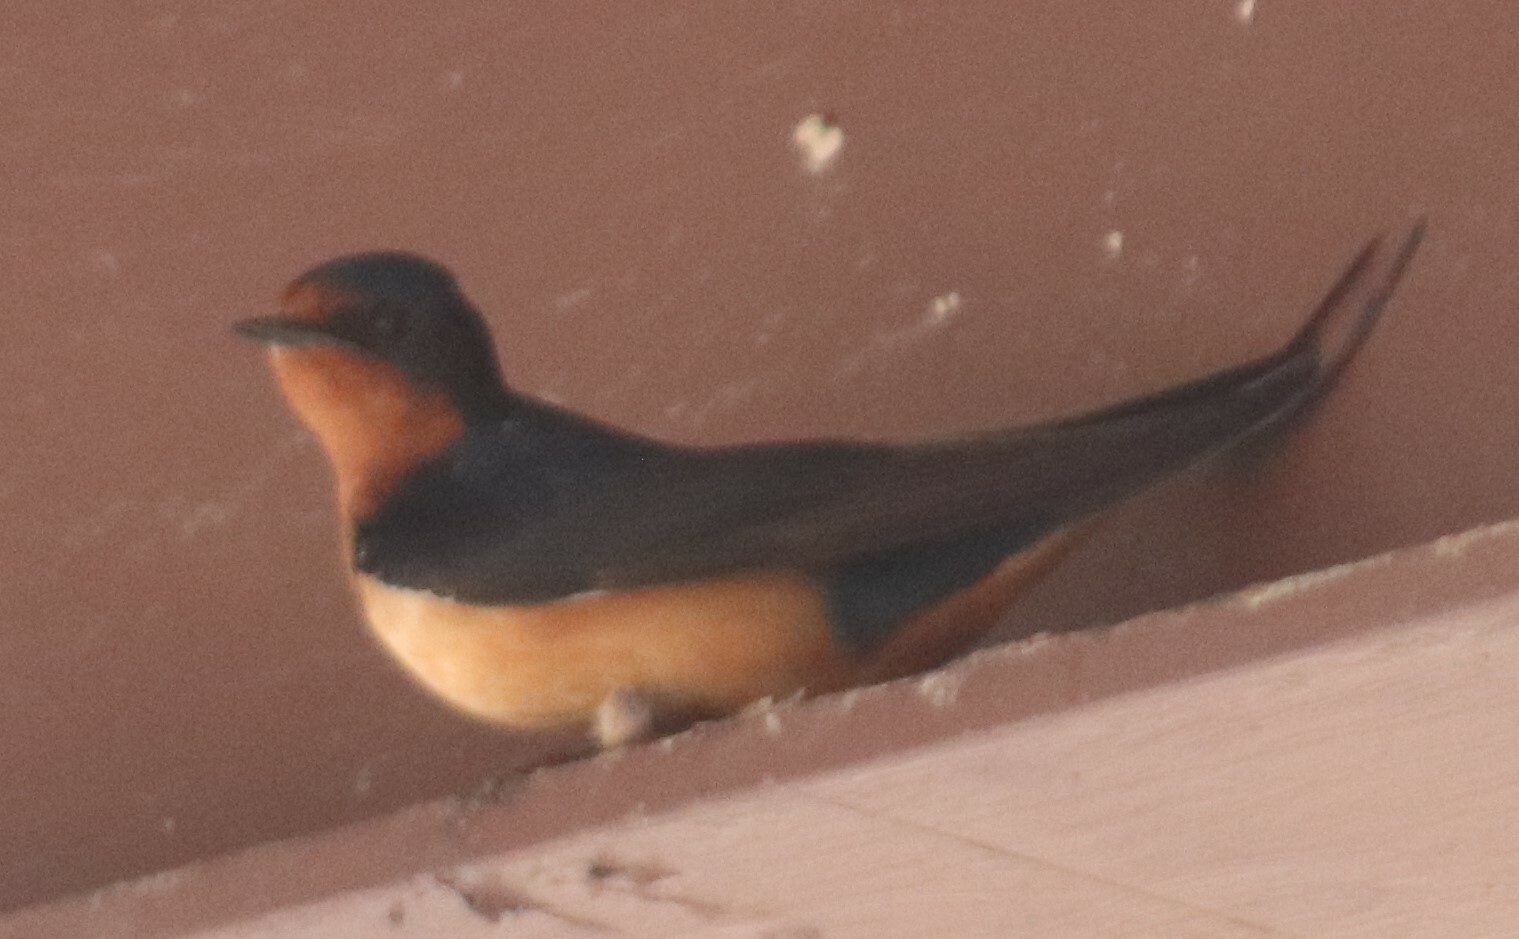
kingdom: Animalia
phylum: Chordata
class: Aves
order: Passeriformes
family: Hirundinidae
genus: Hirundo
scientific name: Hirundo rustica
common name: Barn swallow
